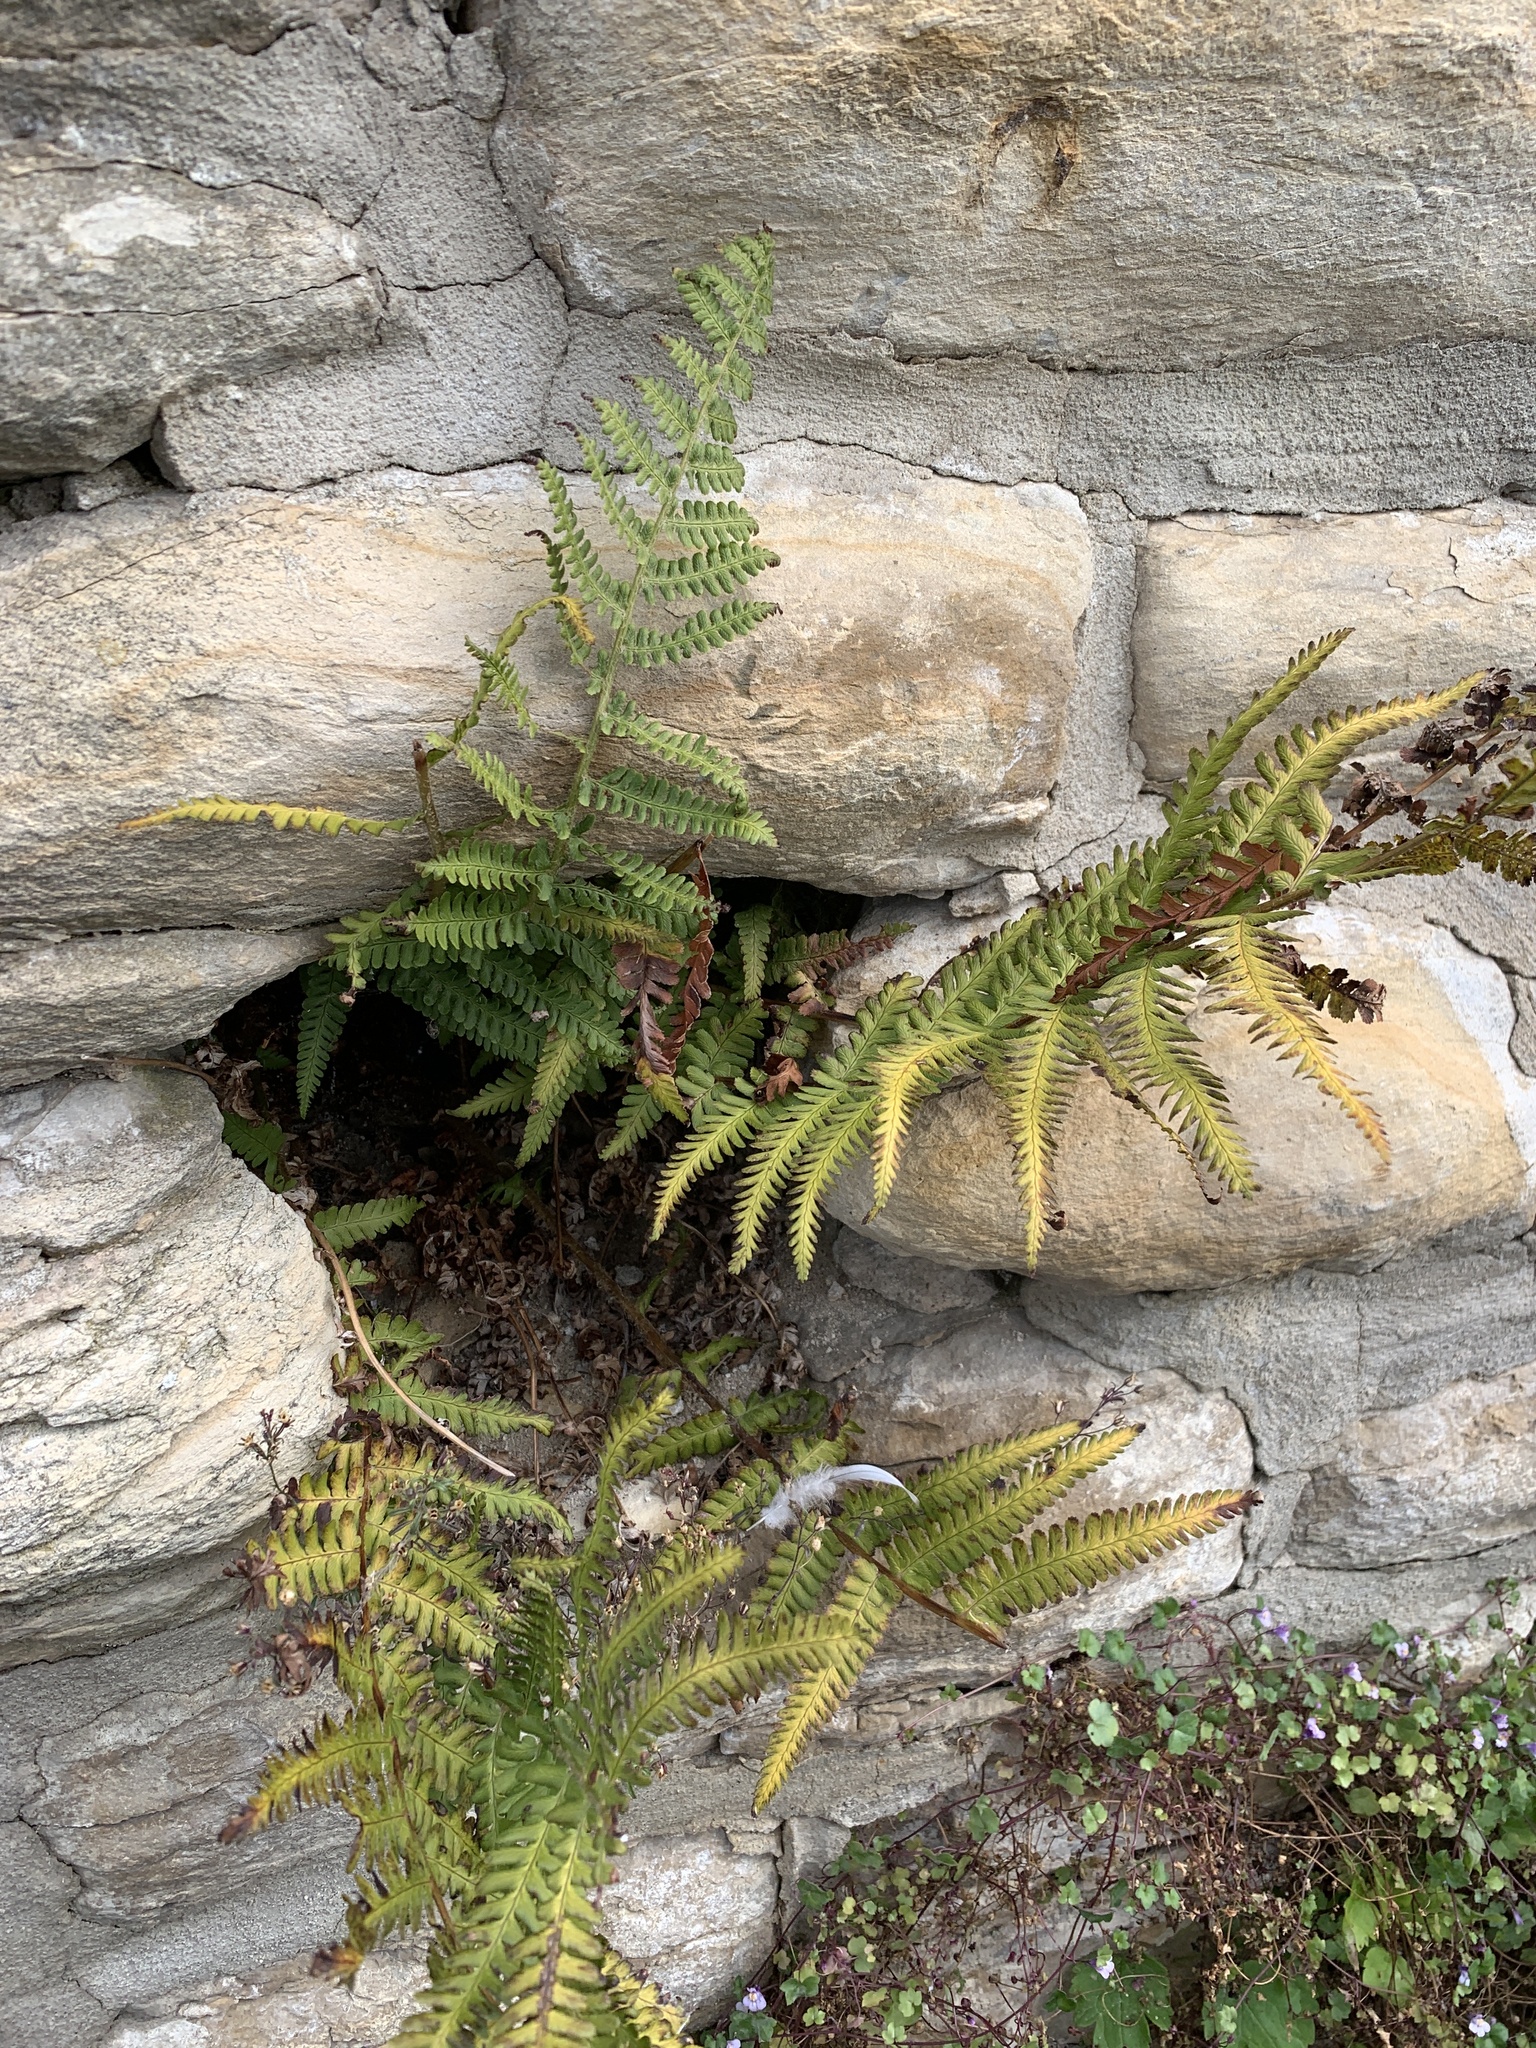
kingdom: Plantae
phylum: Tracheophyta
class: Polypodiopsida
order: Polypodiales
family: Dryopteridaceae
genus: Dryopteris
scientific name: Dryopteris filix-mas
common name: Male fern
